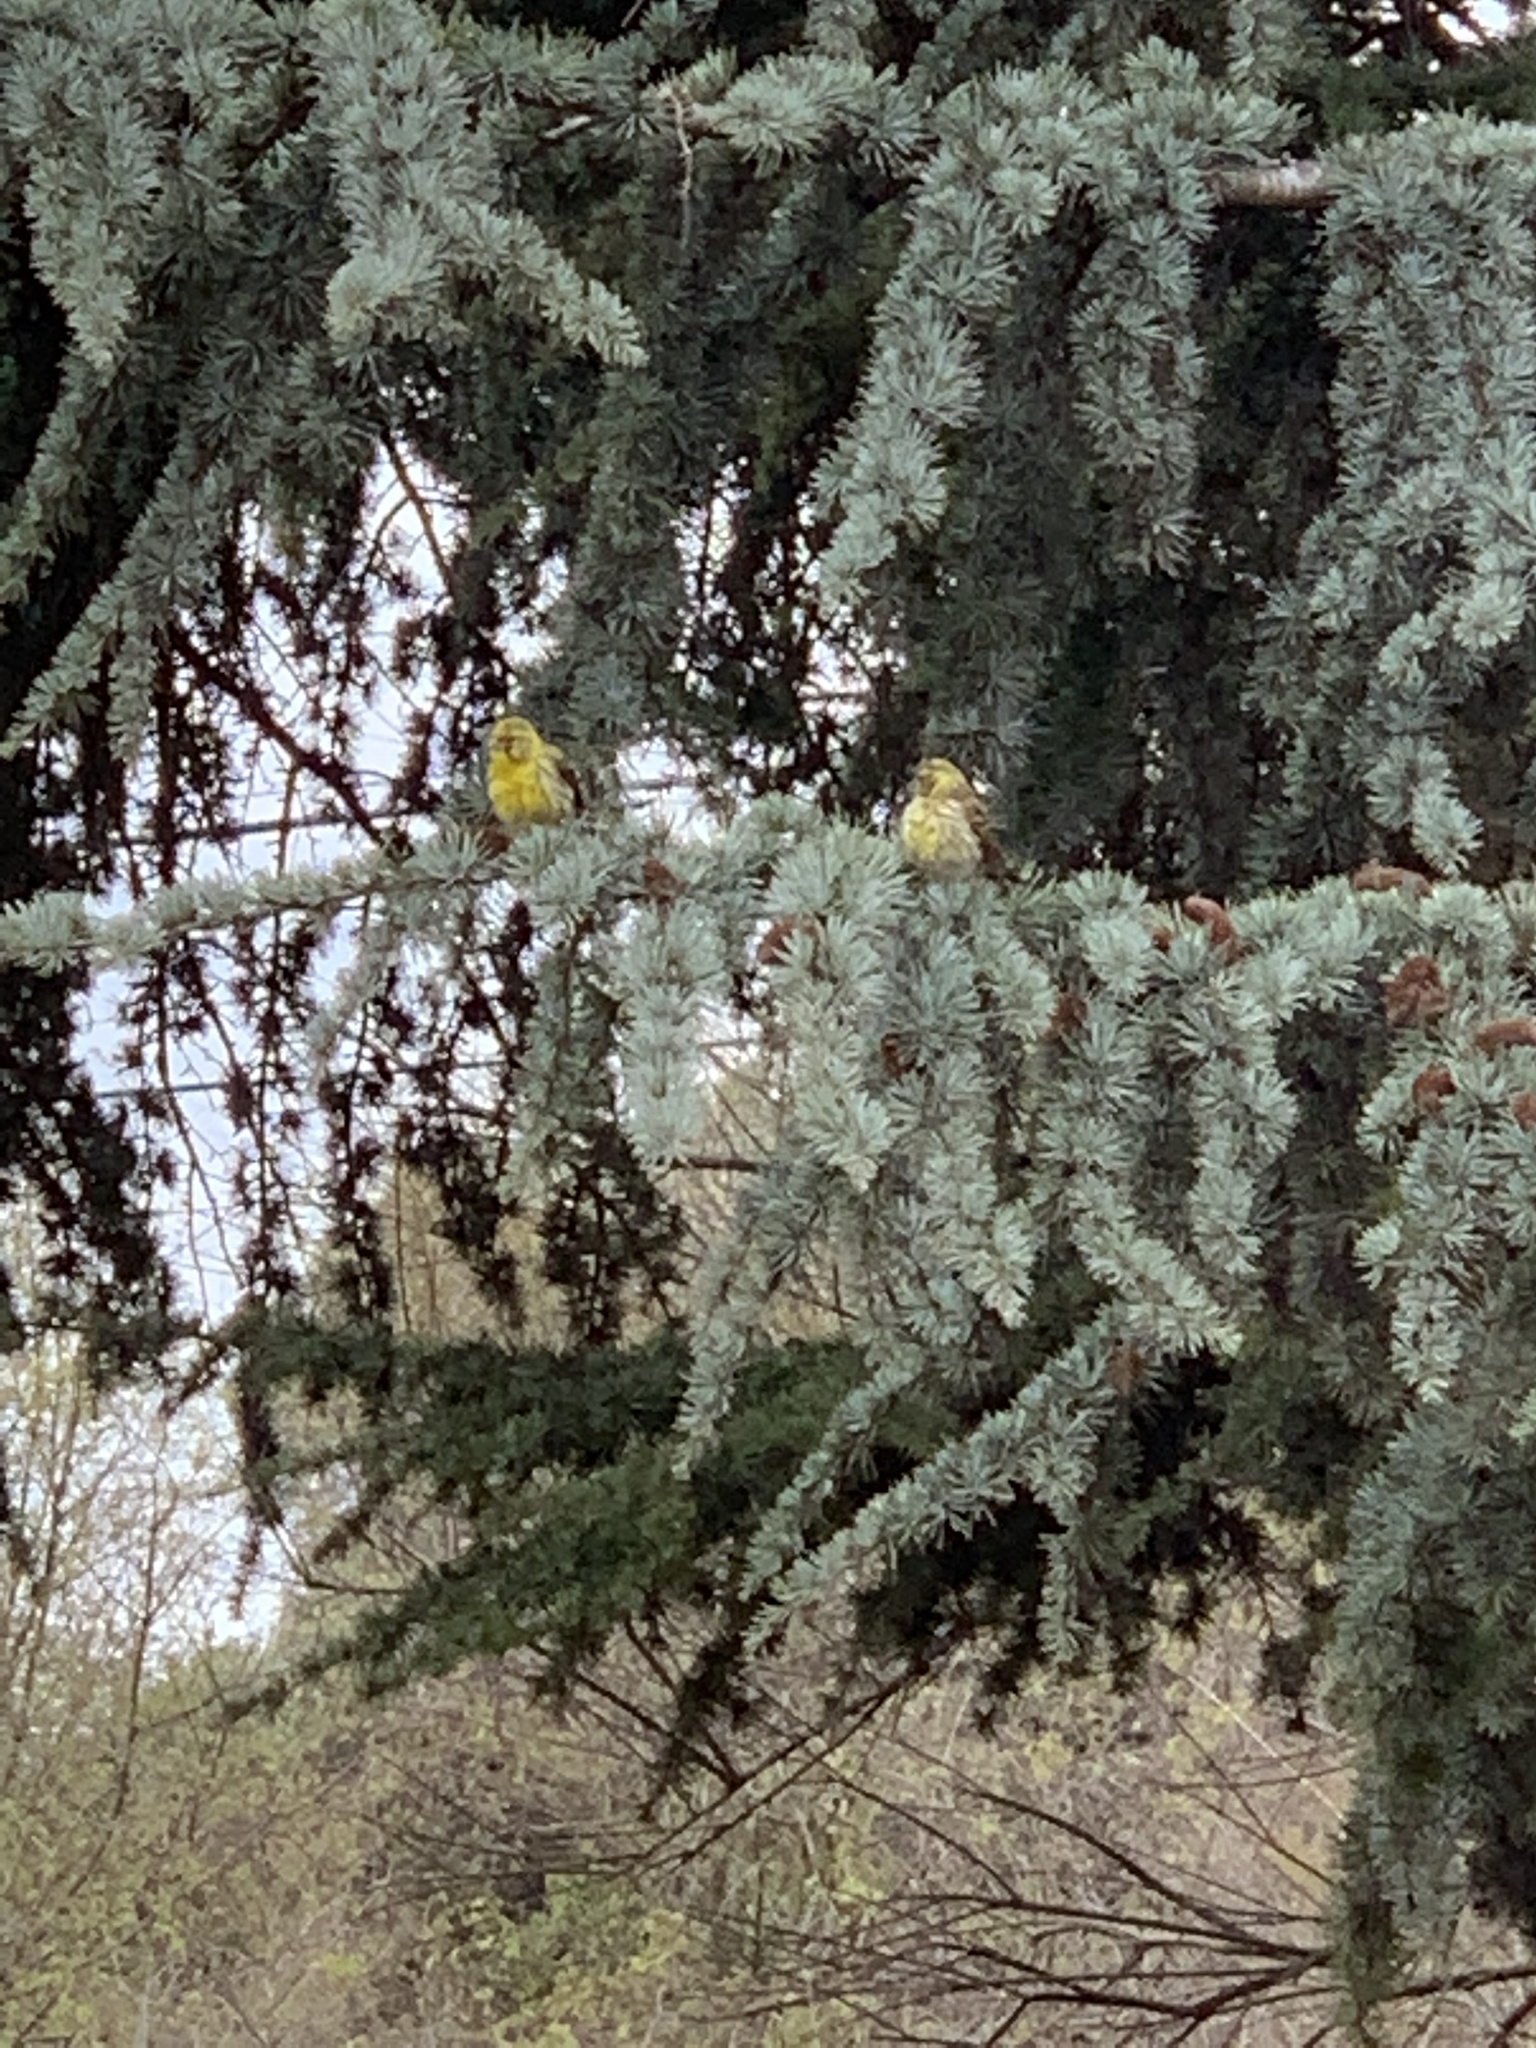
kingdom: Animalia
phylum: Chordata
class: Aves
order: Passeriformes
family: Fringillidae
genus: Serinus
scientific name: Serinus serinus
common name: European serin
